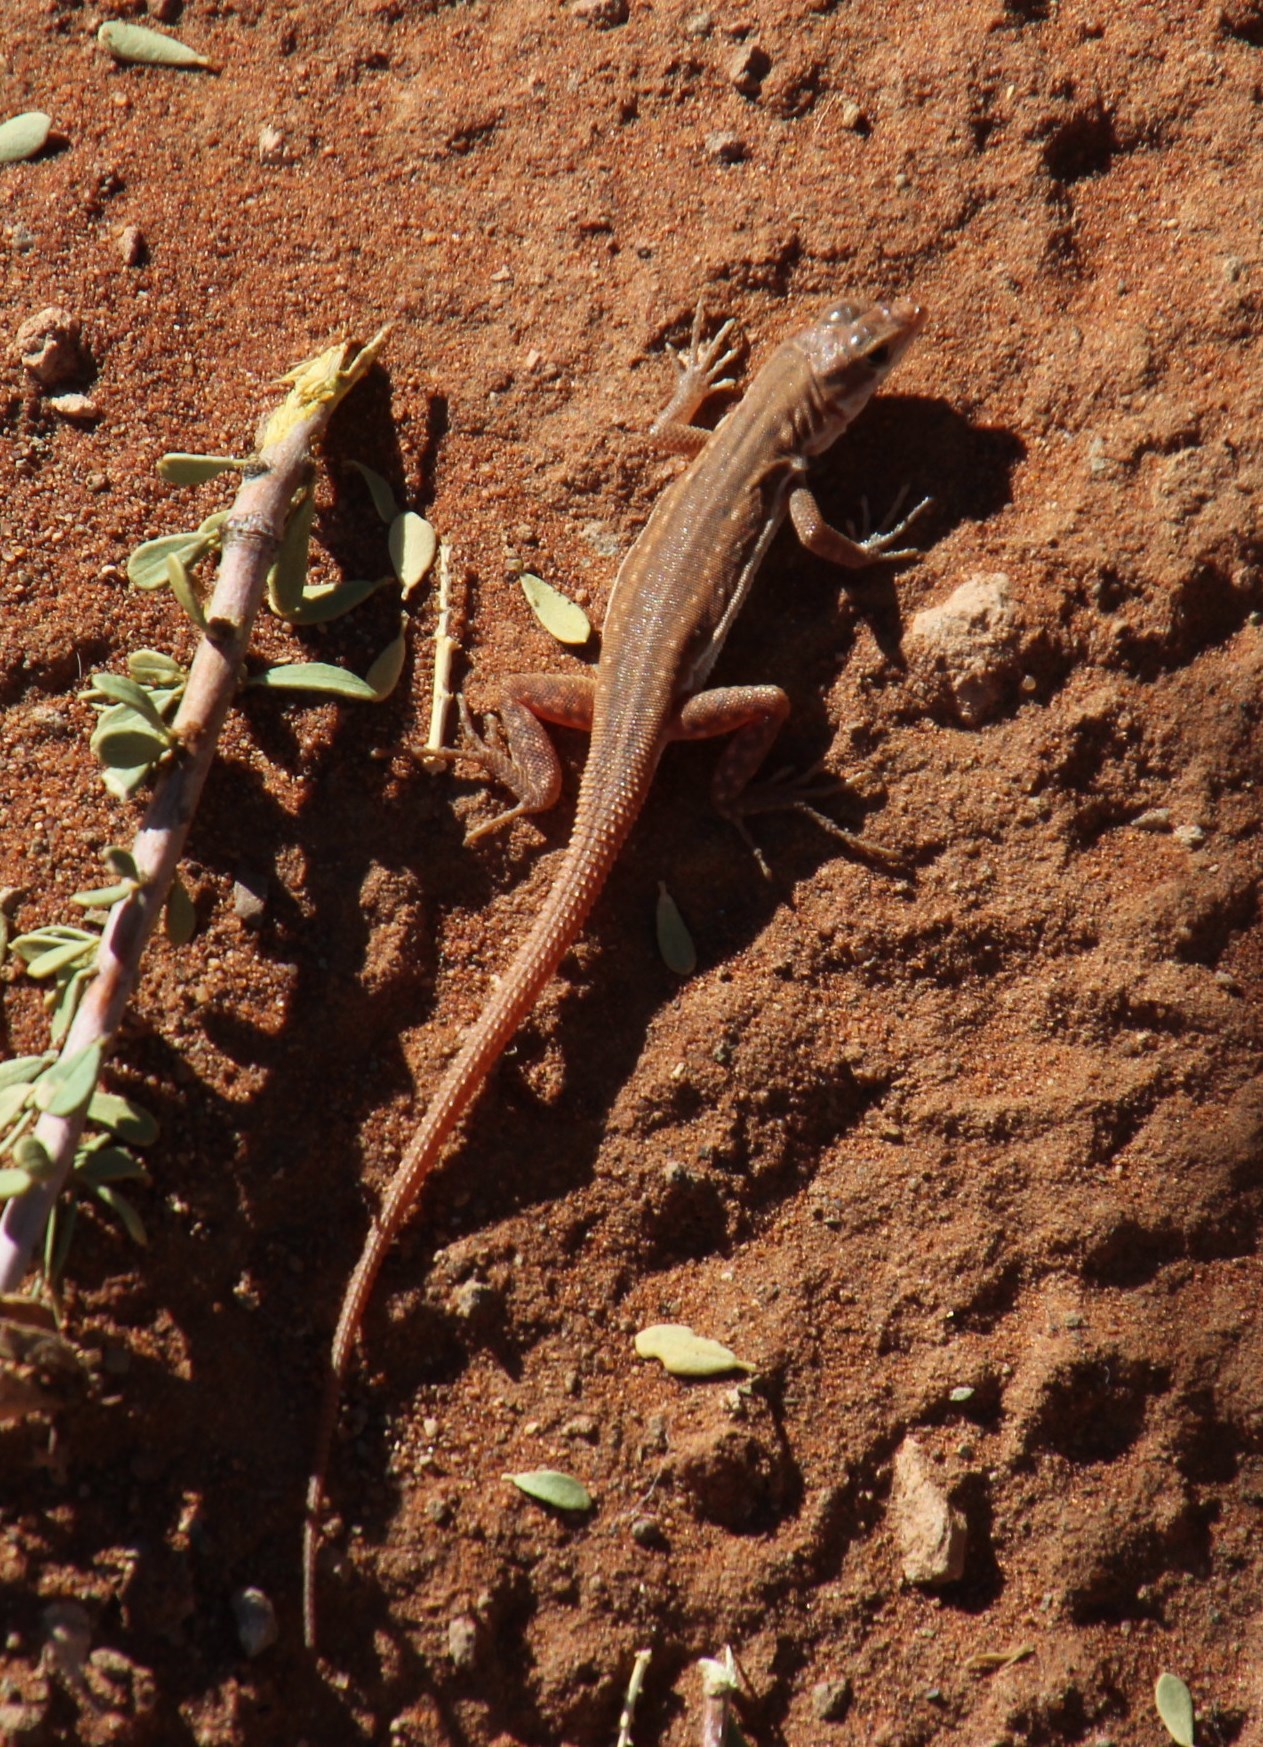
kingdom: Animalia
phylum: Chordata
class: Squamata
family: Lacertidae
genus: Pedioplanis
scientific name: Pedioplanis inornata
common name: Plain sand lizard
